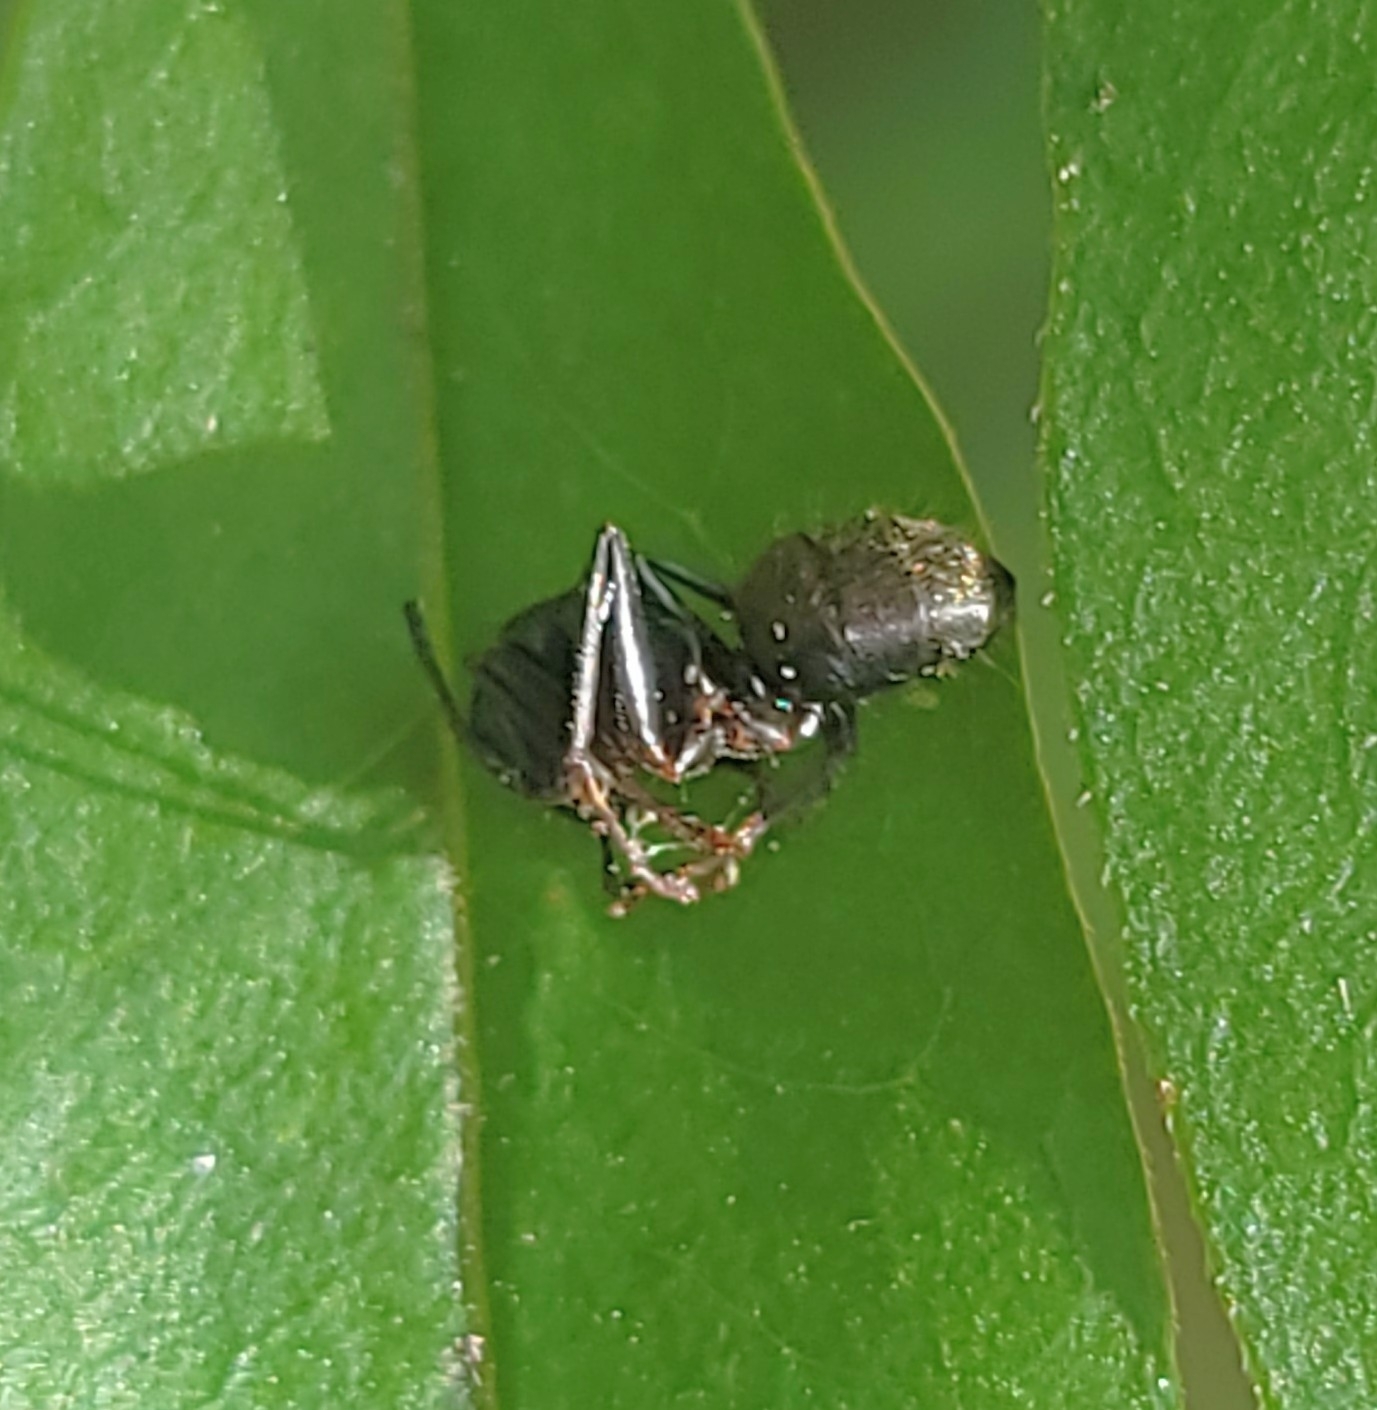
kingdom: Animalia
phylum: Arthropoda
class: Insecta
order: Hymenoptera
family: Formicidae
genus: Camponotus
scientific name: Camponotus pennsylvanicus
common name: Black carpenter ant
